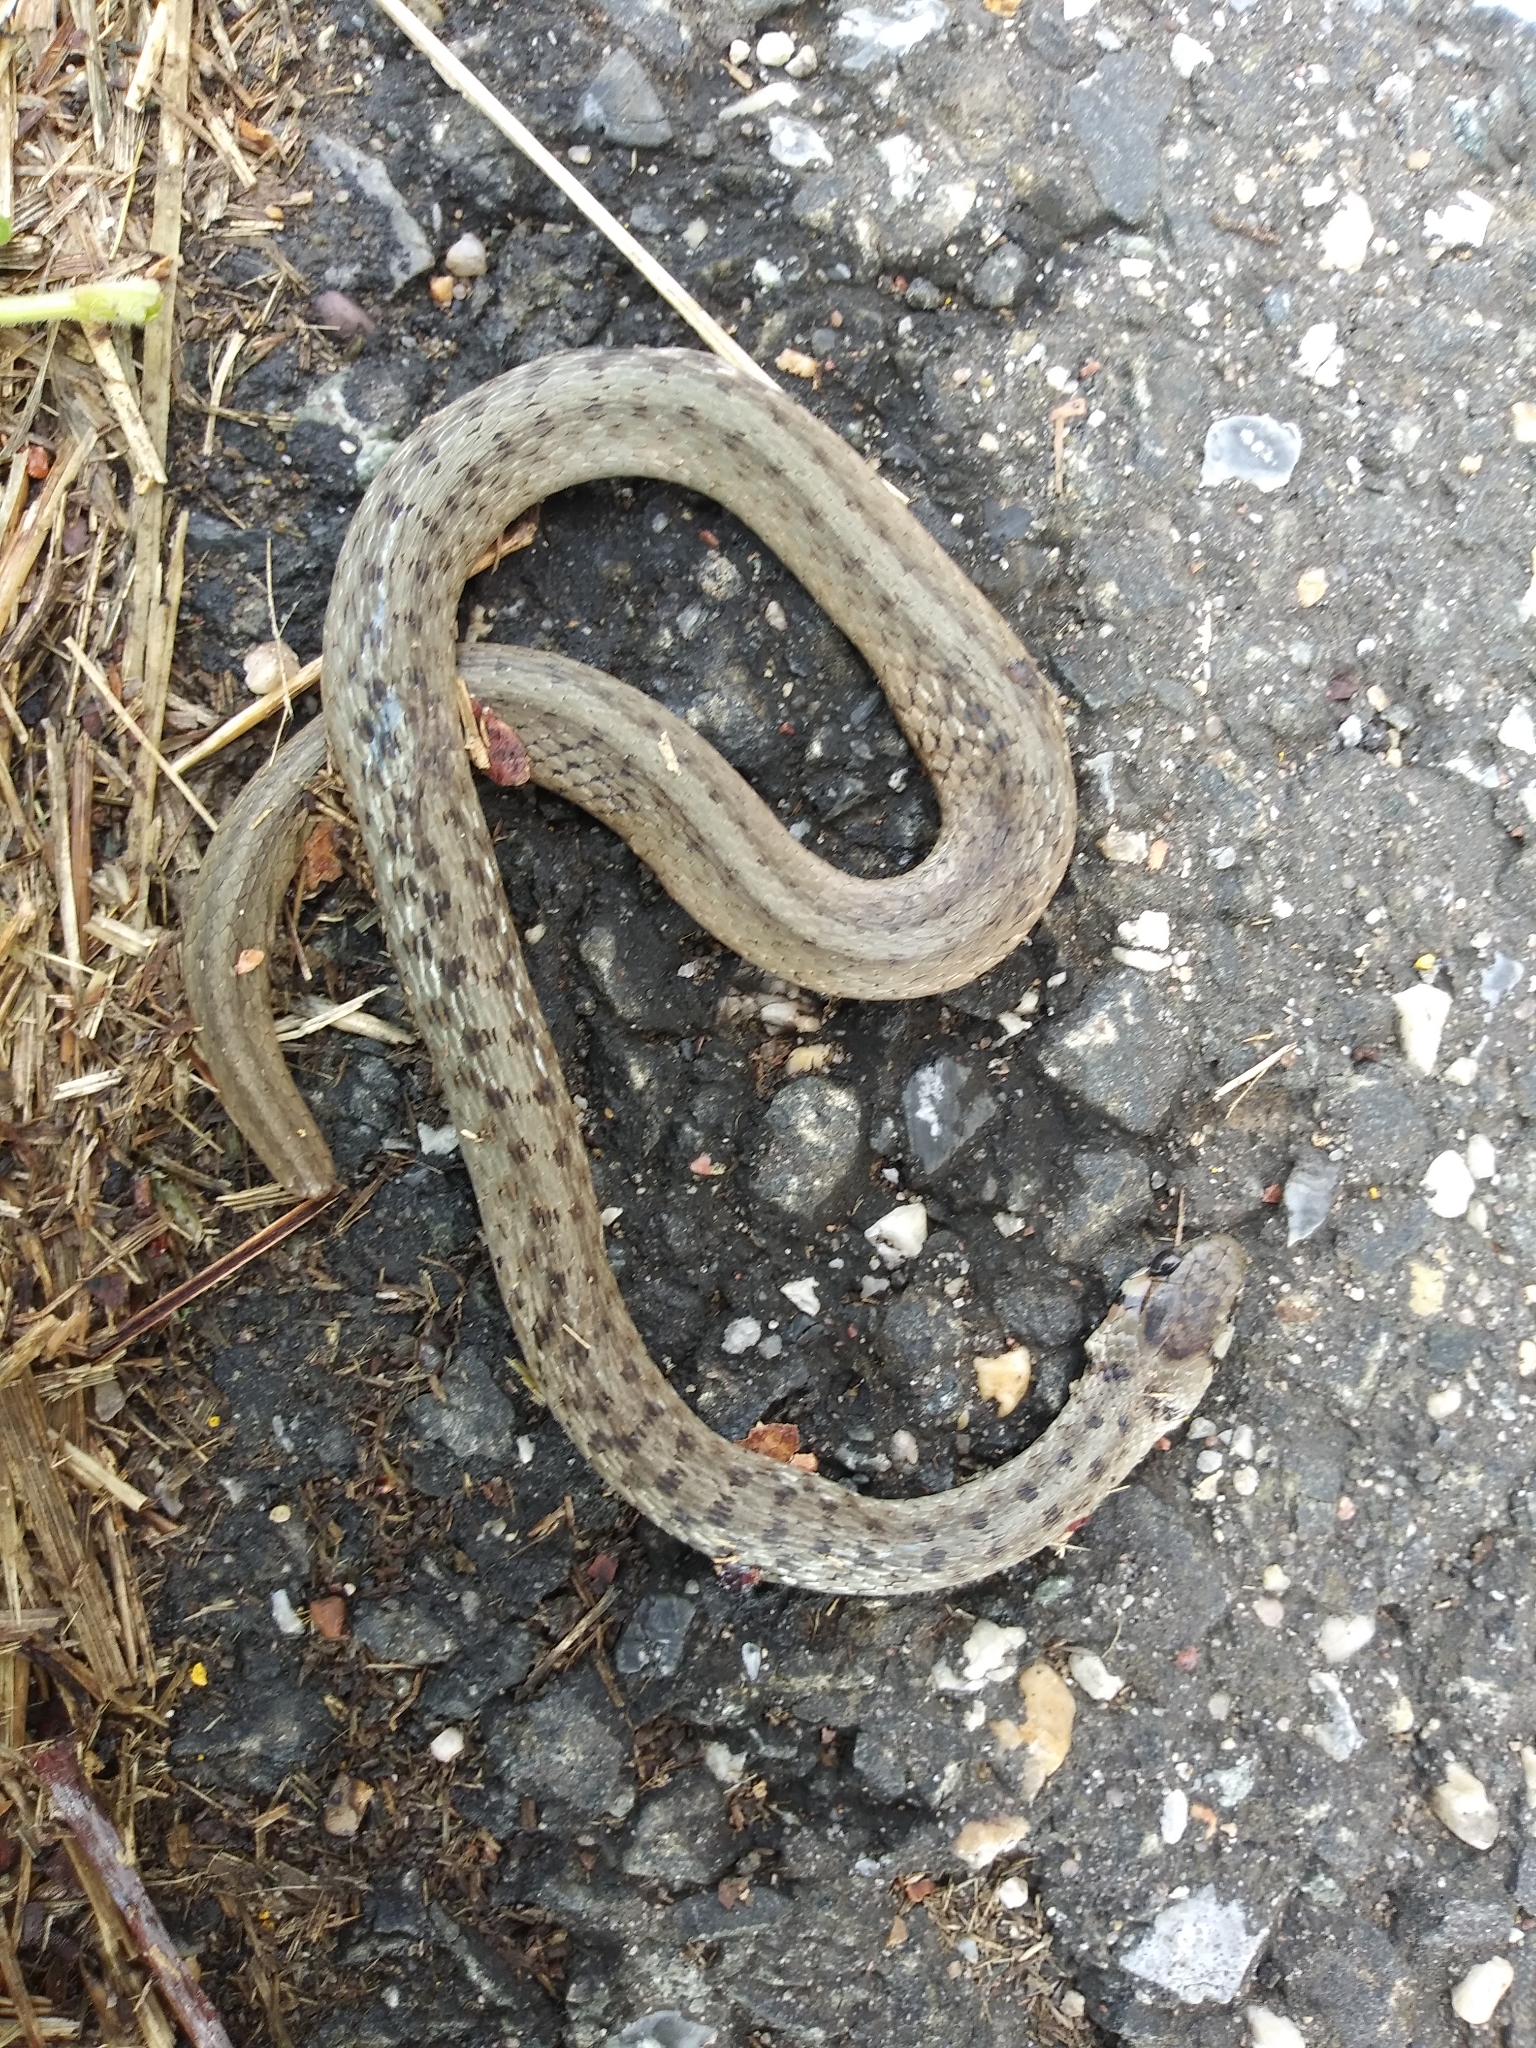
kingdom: Animalia
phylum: Chordata
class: Squamata
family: Colubridae
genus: Storeria
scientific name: Storeria dekayi
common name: (dekay’s) brown snake
